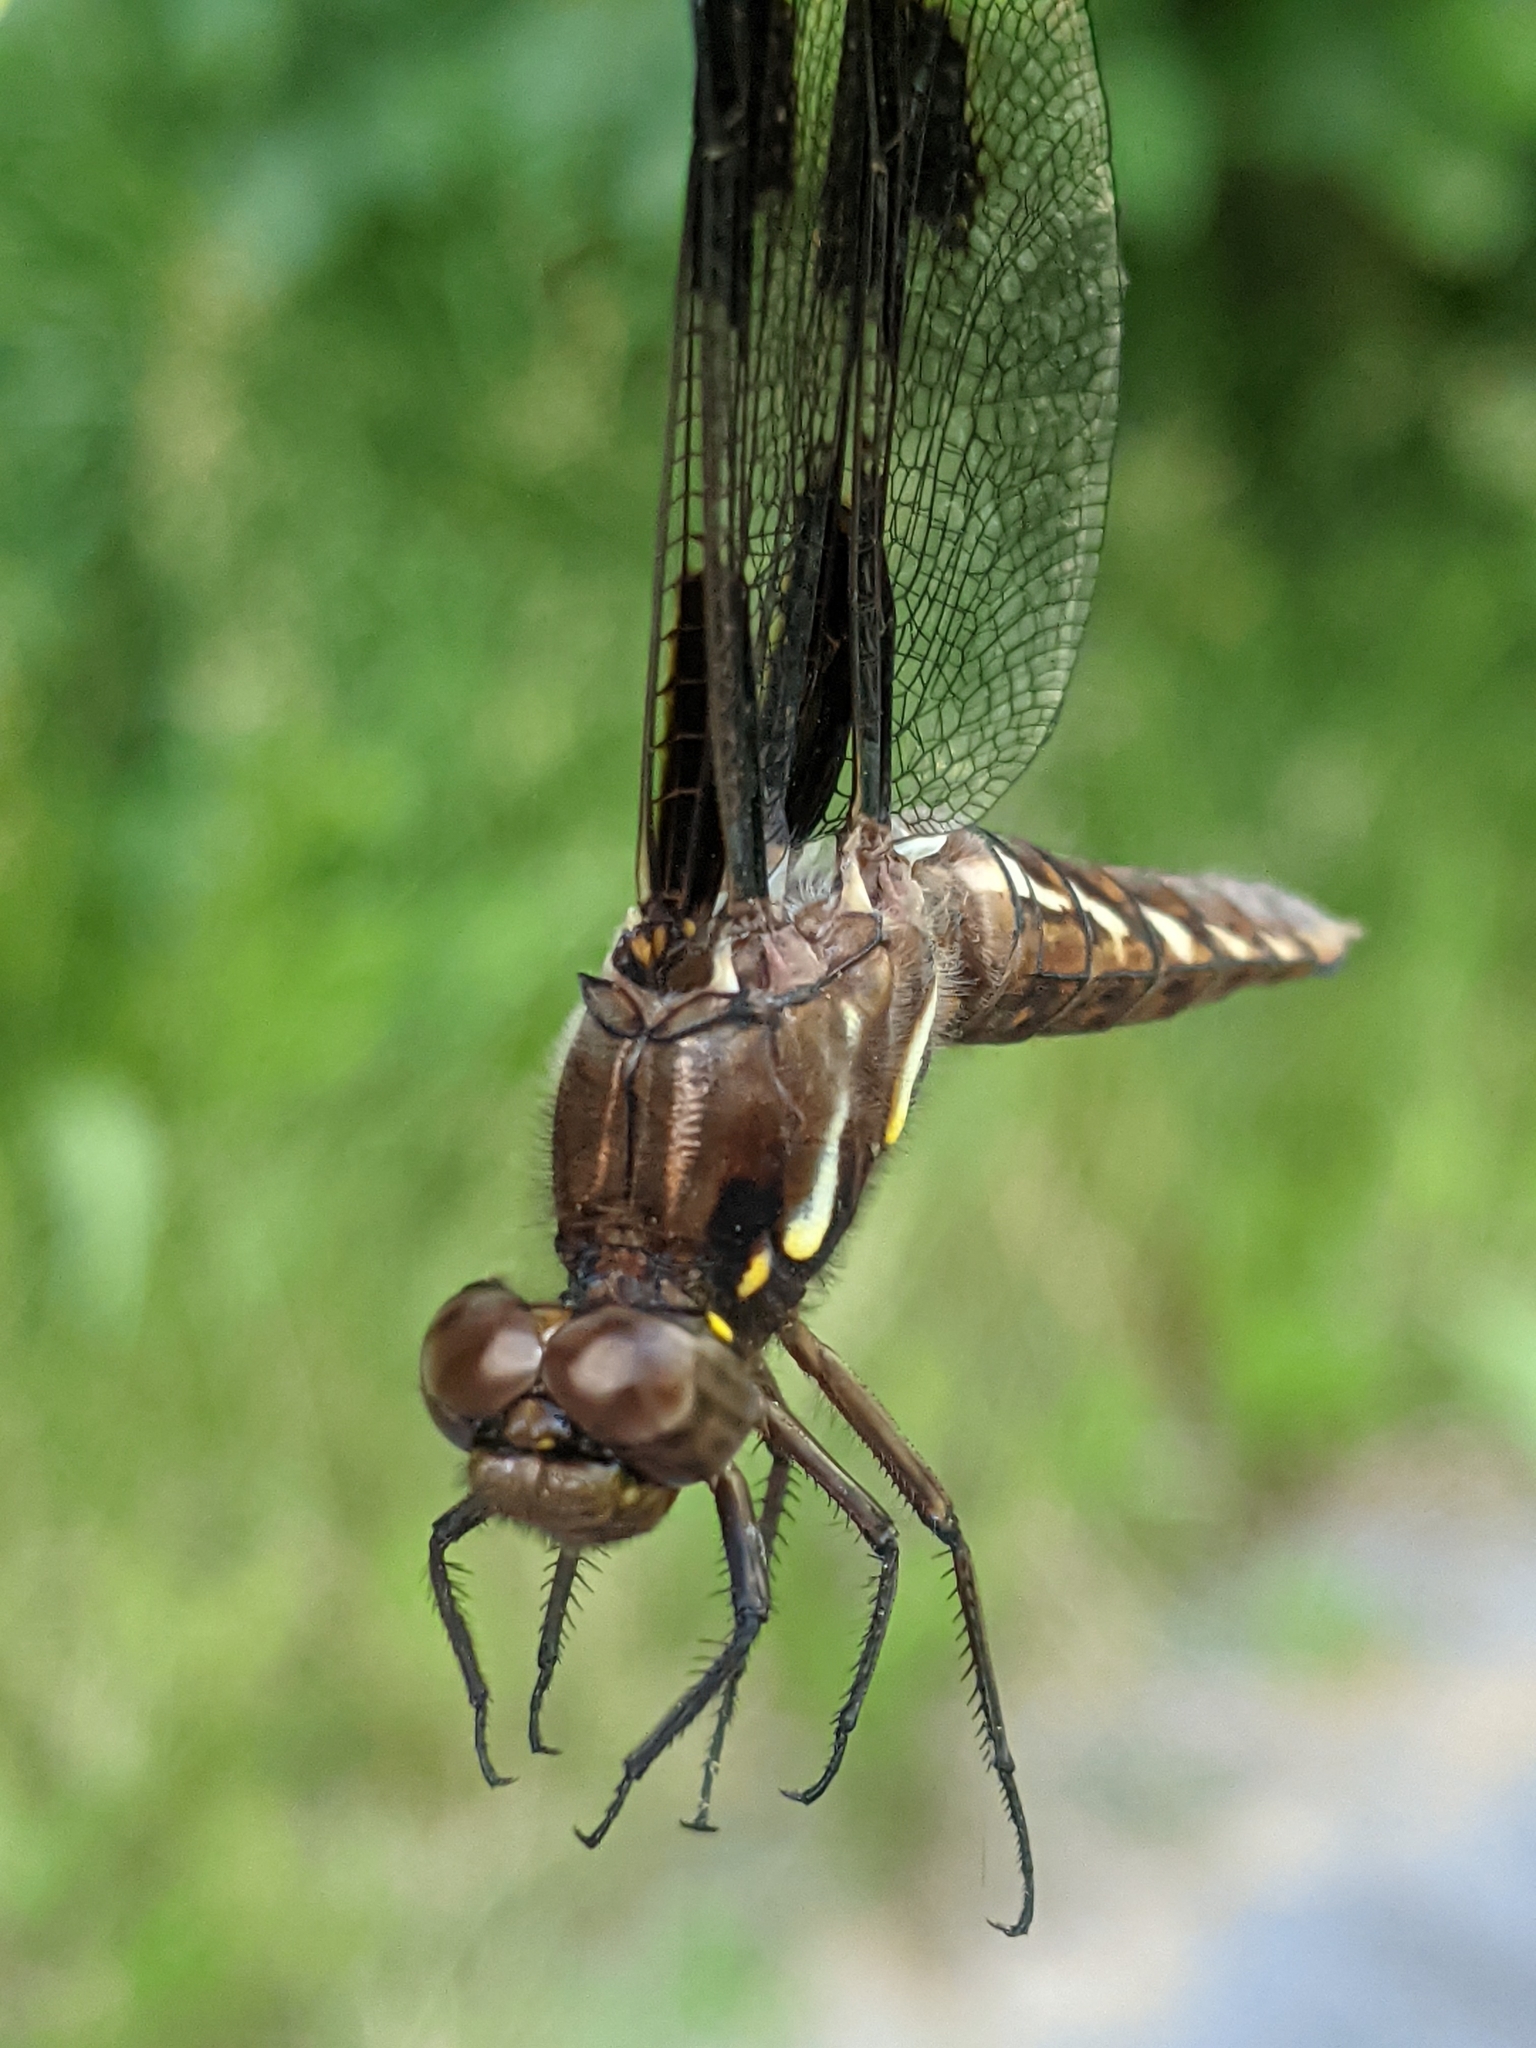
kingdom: Animalia
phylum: Arthropoda
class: Insecta
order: Odonata
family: Libellulidae
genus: Plathemis
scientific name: Plathemis lydia
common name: Common whitetail
